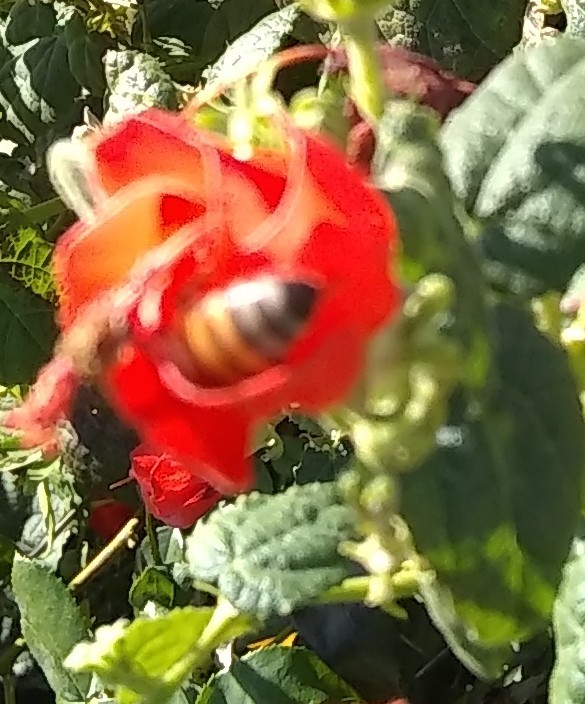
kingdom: Animalia
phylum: Arthropoda
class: Insecta
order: Hymenoptera
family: Apidae
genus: Apis
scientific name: Apis mellifera
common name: Honey bee
